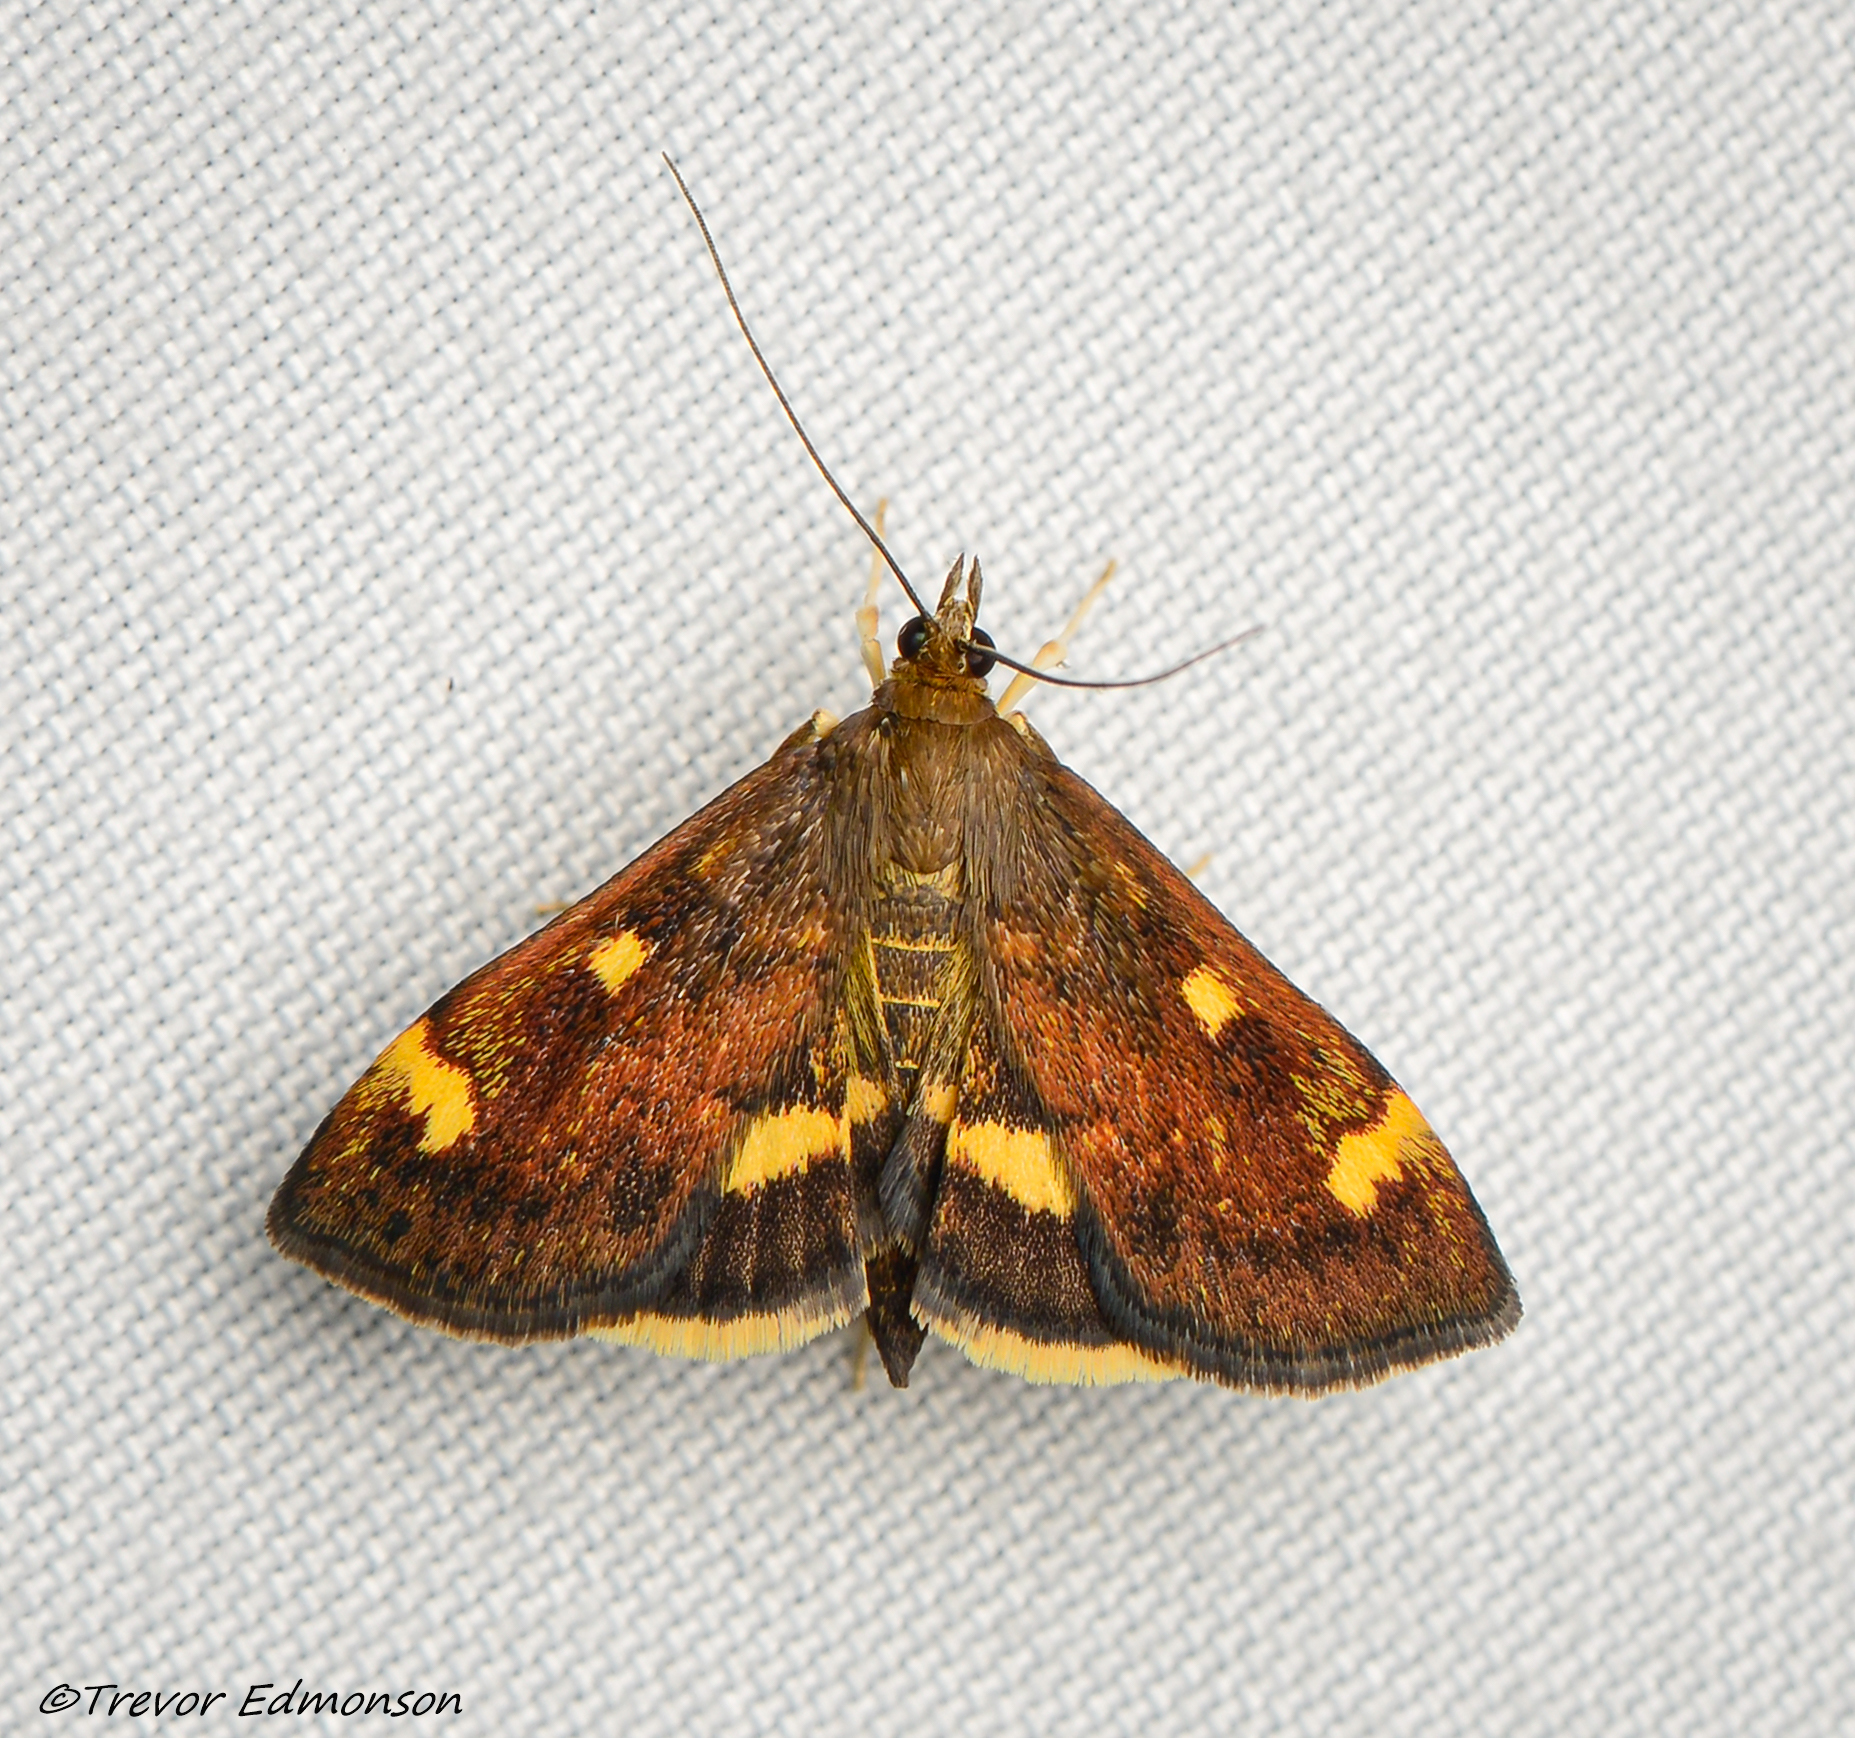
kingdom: Animalia
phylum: Arthropoda
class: Insecta
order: Lepidoptera
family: Crambidae
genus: Pyrausta
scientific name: Pyrausta generosa
